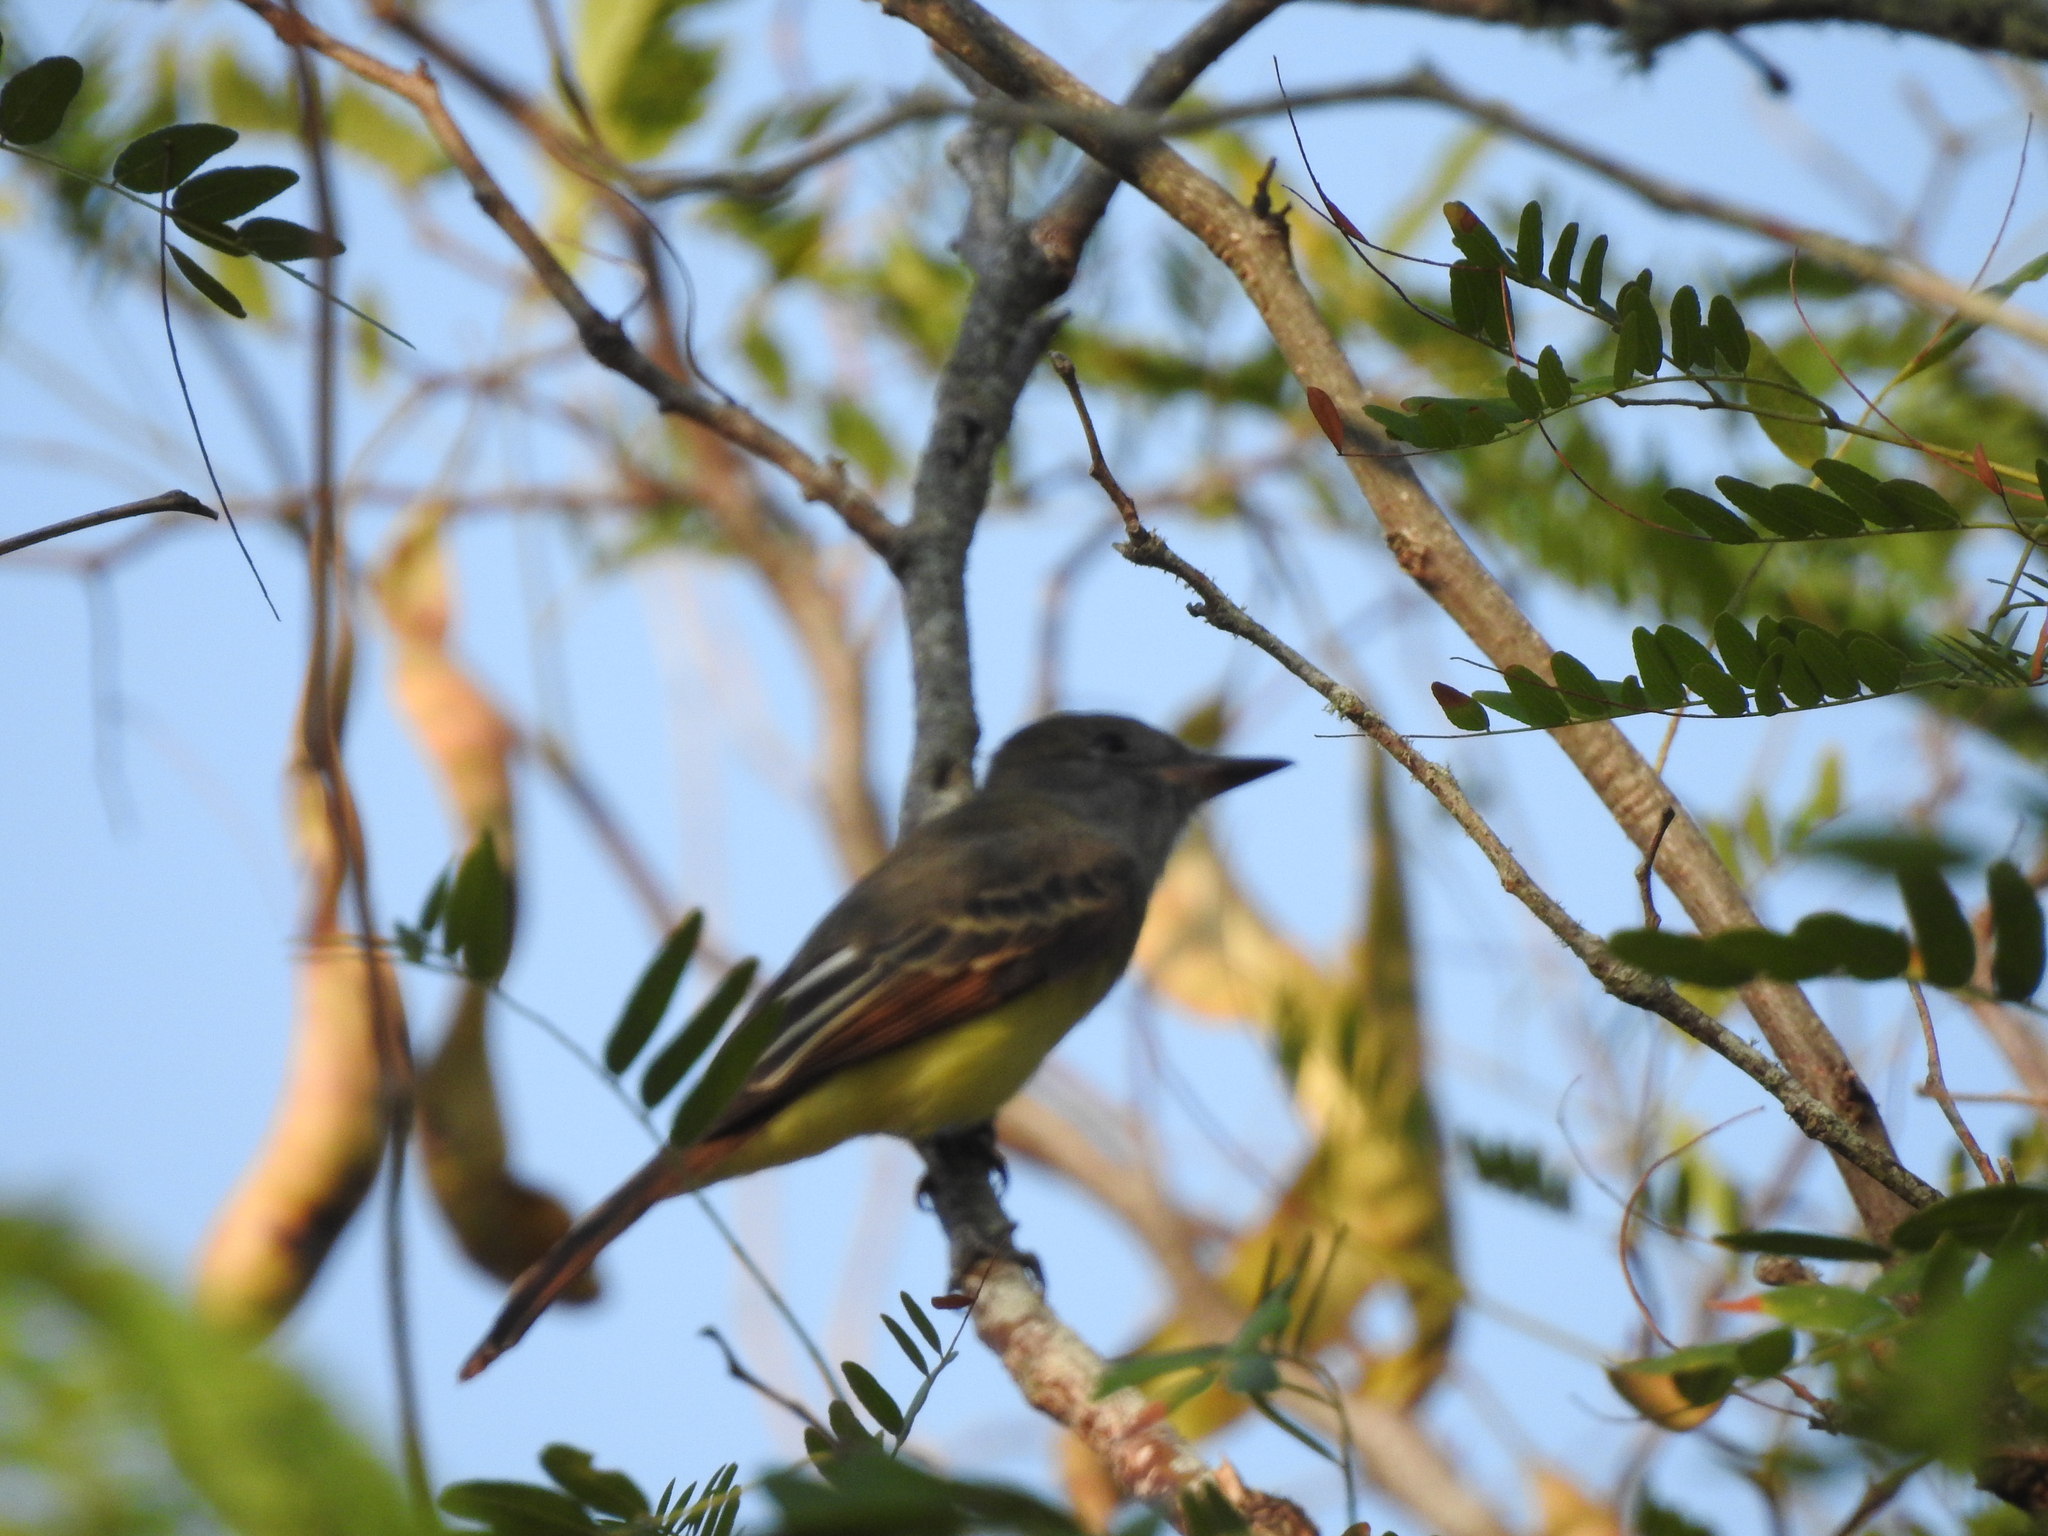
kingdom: Animalia
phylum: Chordata
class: Aves
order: Passeriformes
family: Tyrannidae
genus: Myiarchus
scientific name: Myiarchus crinitus
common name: Great crested flycatcher
